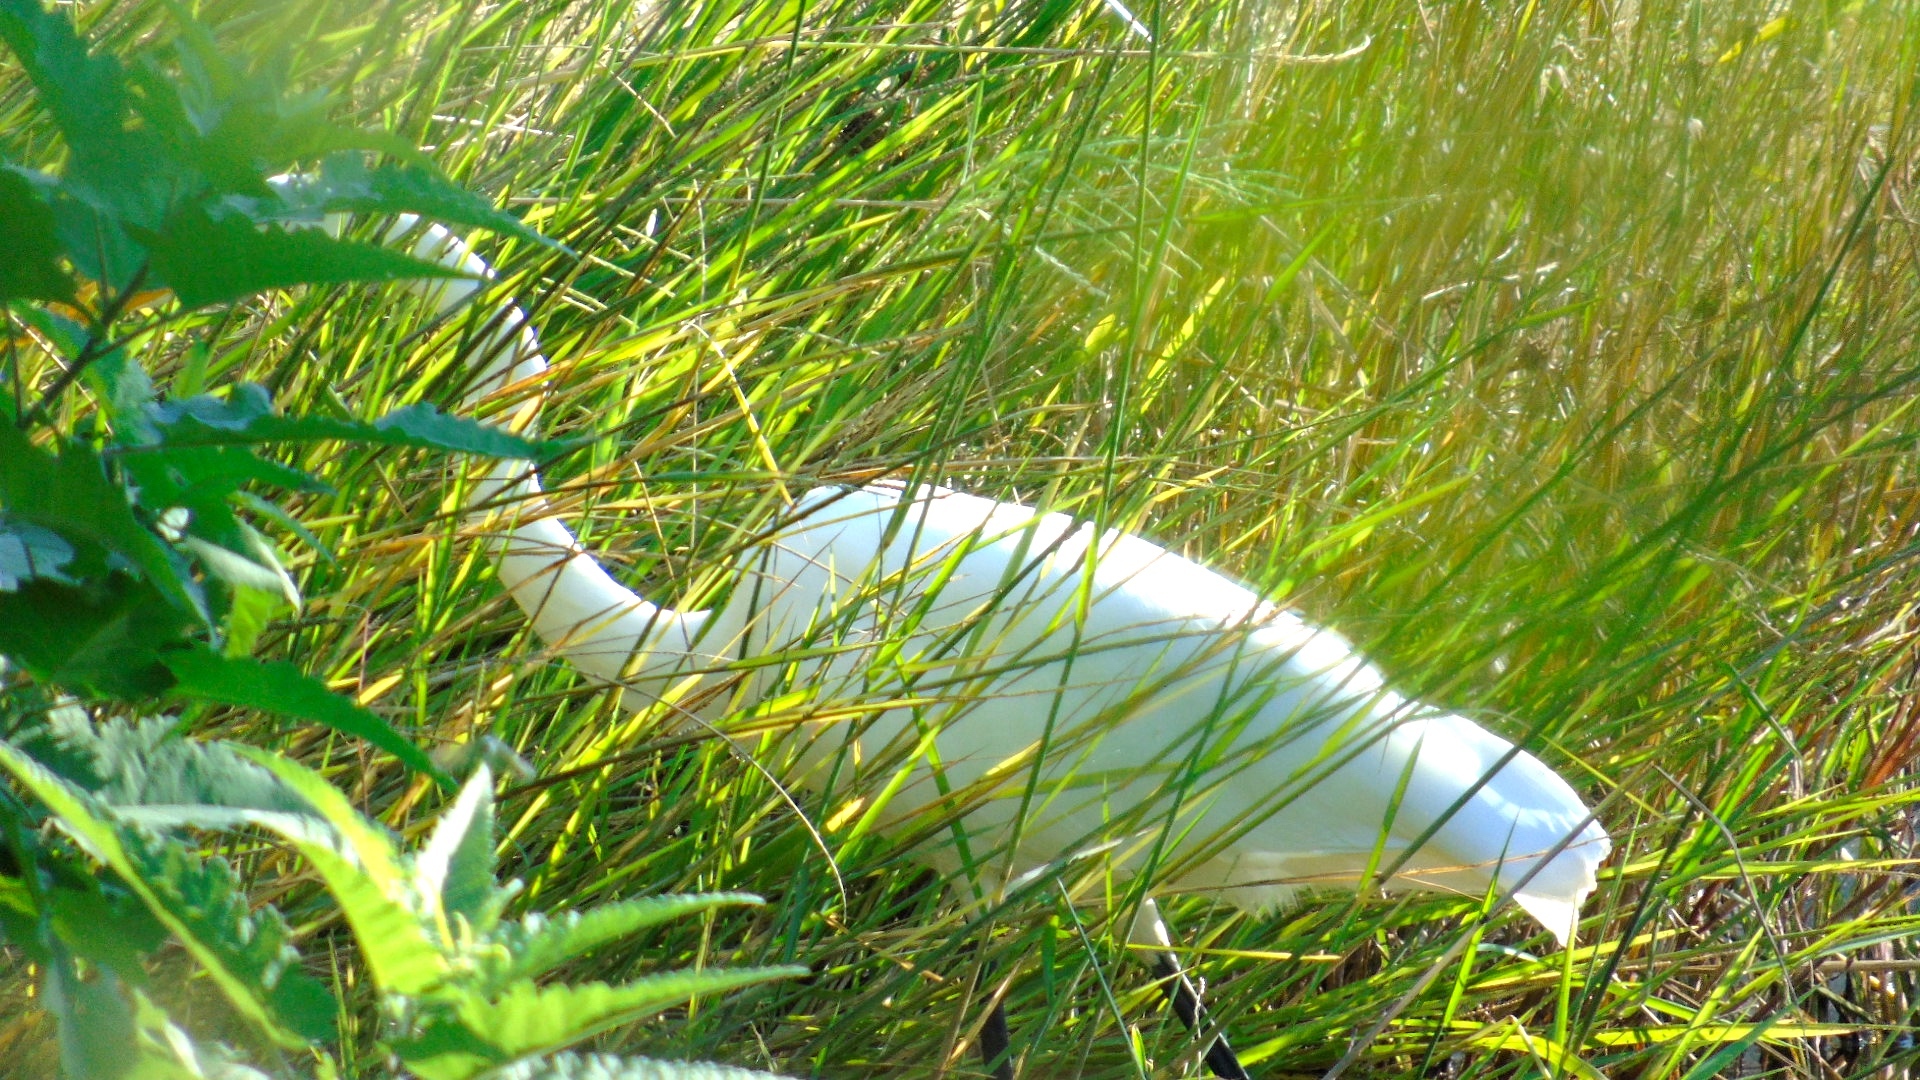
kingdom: Animalia
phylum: Chordata
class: Aves
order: Pelecaniformes
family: Ardeidae
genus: Ardea
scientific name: Ardea alba
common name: Great egret
